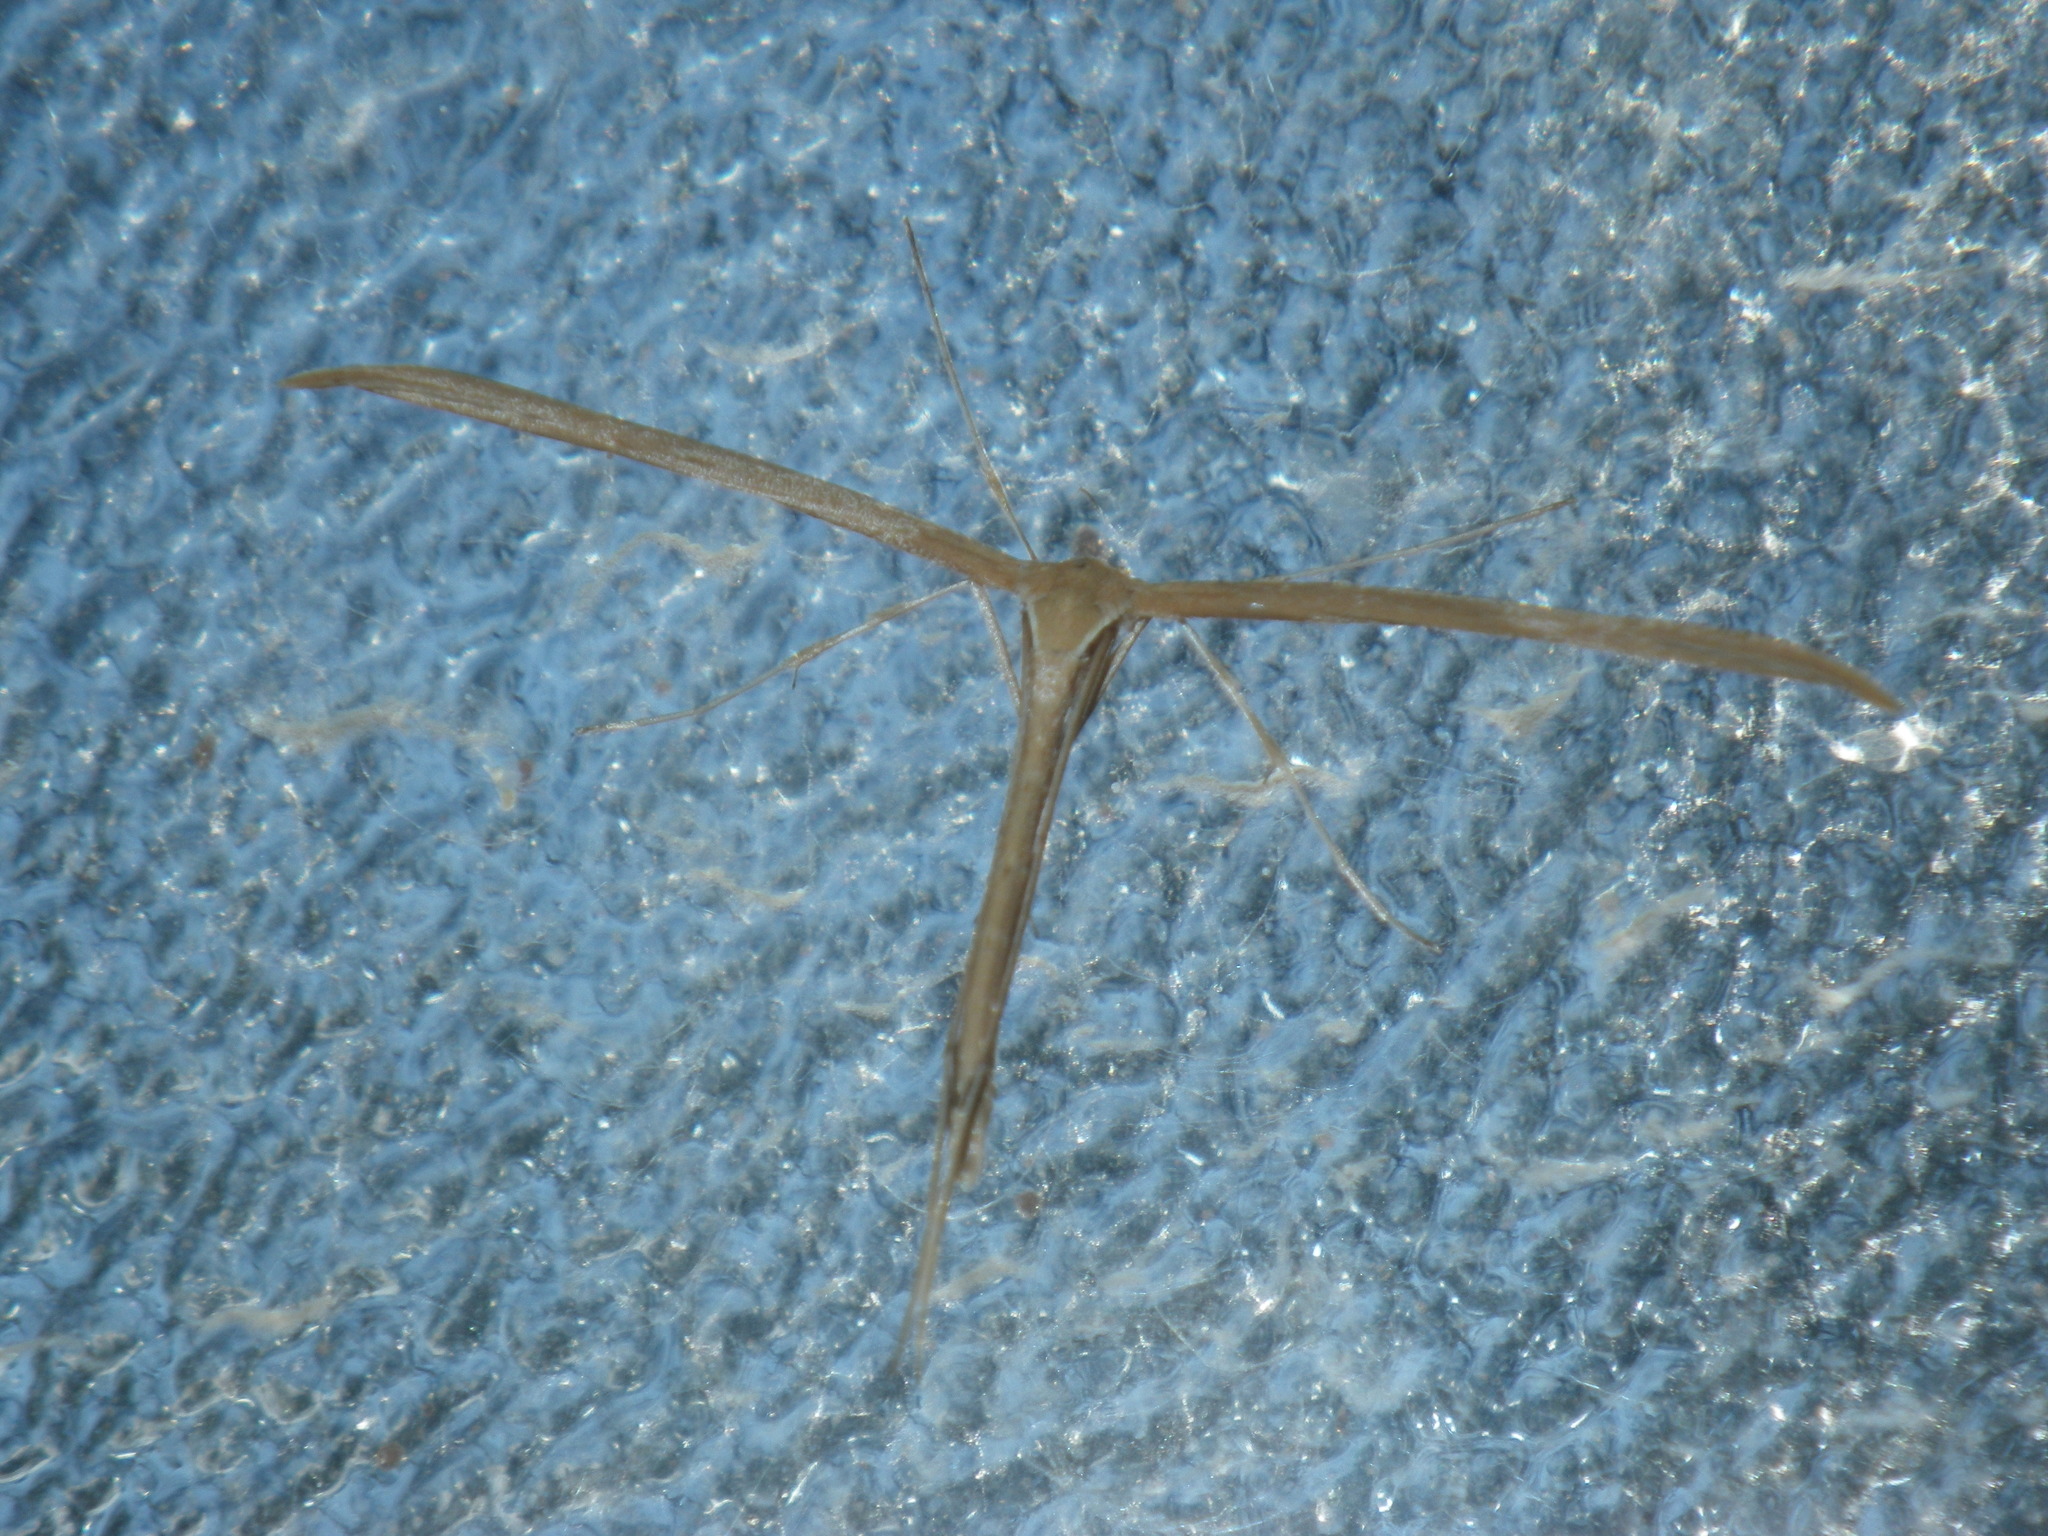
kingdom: Animalia
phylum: Arthropoda
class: Insecta
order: Lepidoptera
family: Pterophoridae
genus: Emmelina
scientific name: Emmelina monodactyla
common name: Common plume
